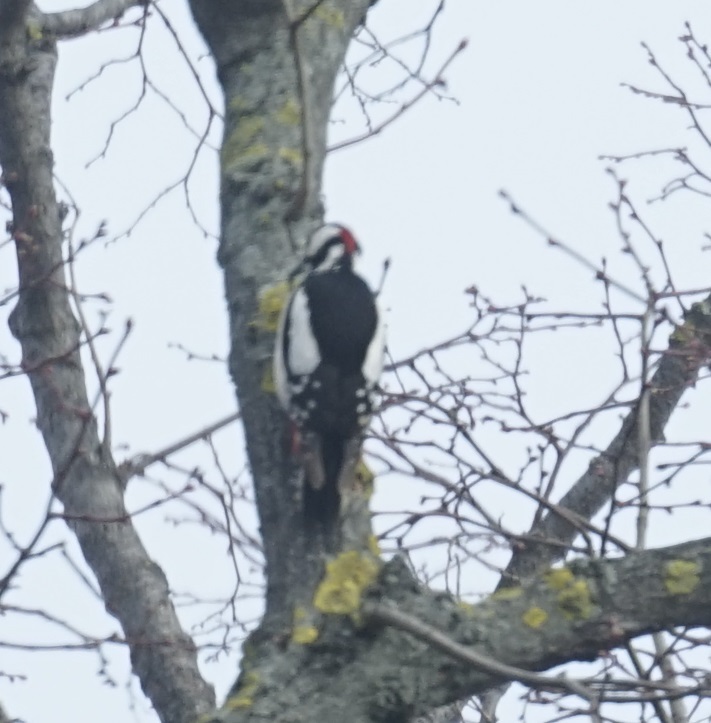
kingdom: Animalia
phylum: Chordata
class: Aves
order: Piciformes
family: Picidae
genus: Dendrocopos
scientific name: Dendrocopos major
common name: Great spotted woodpecker
